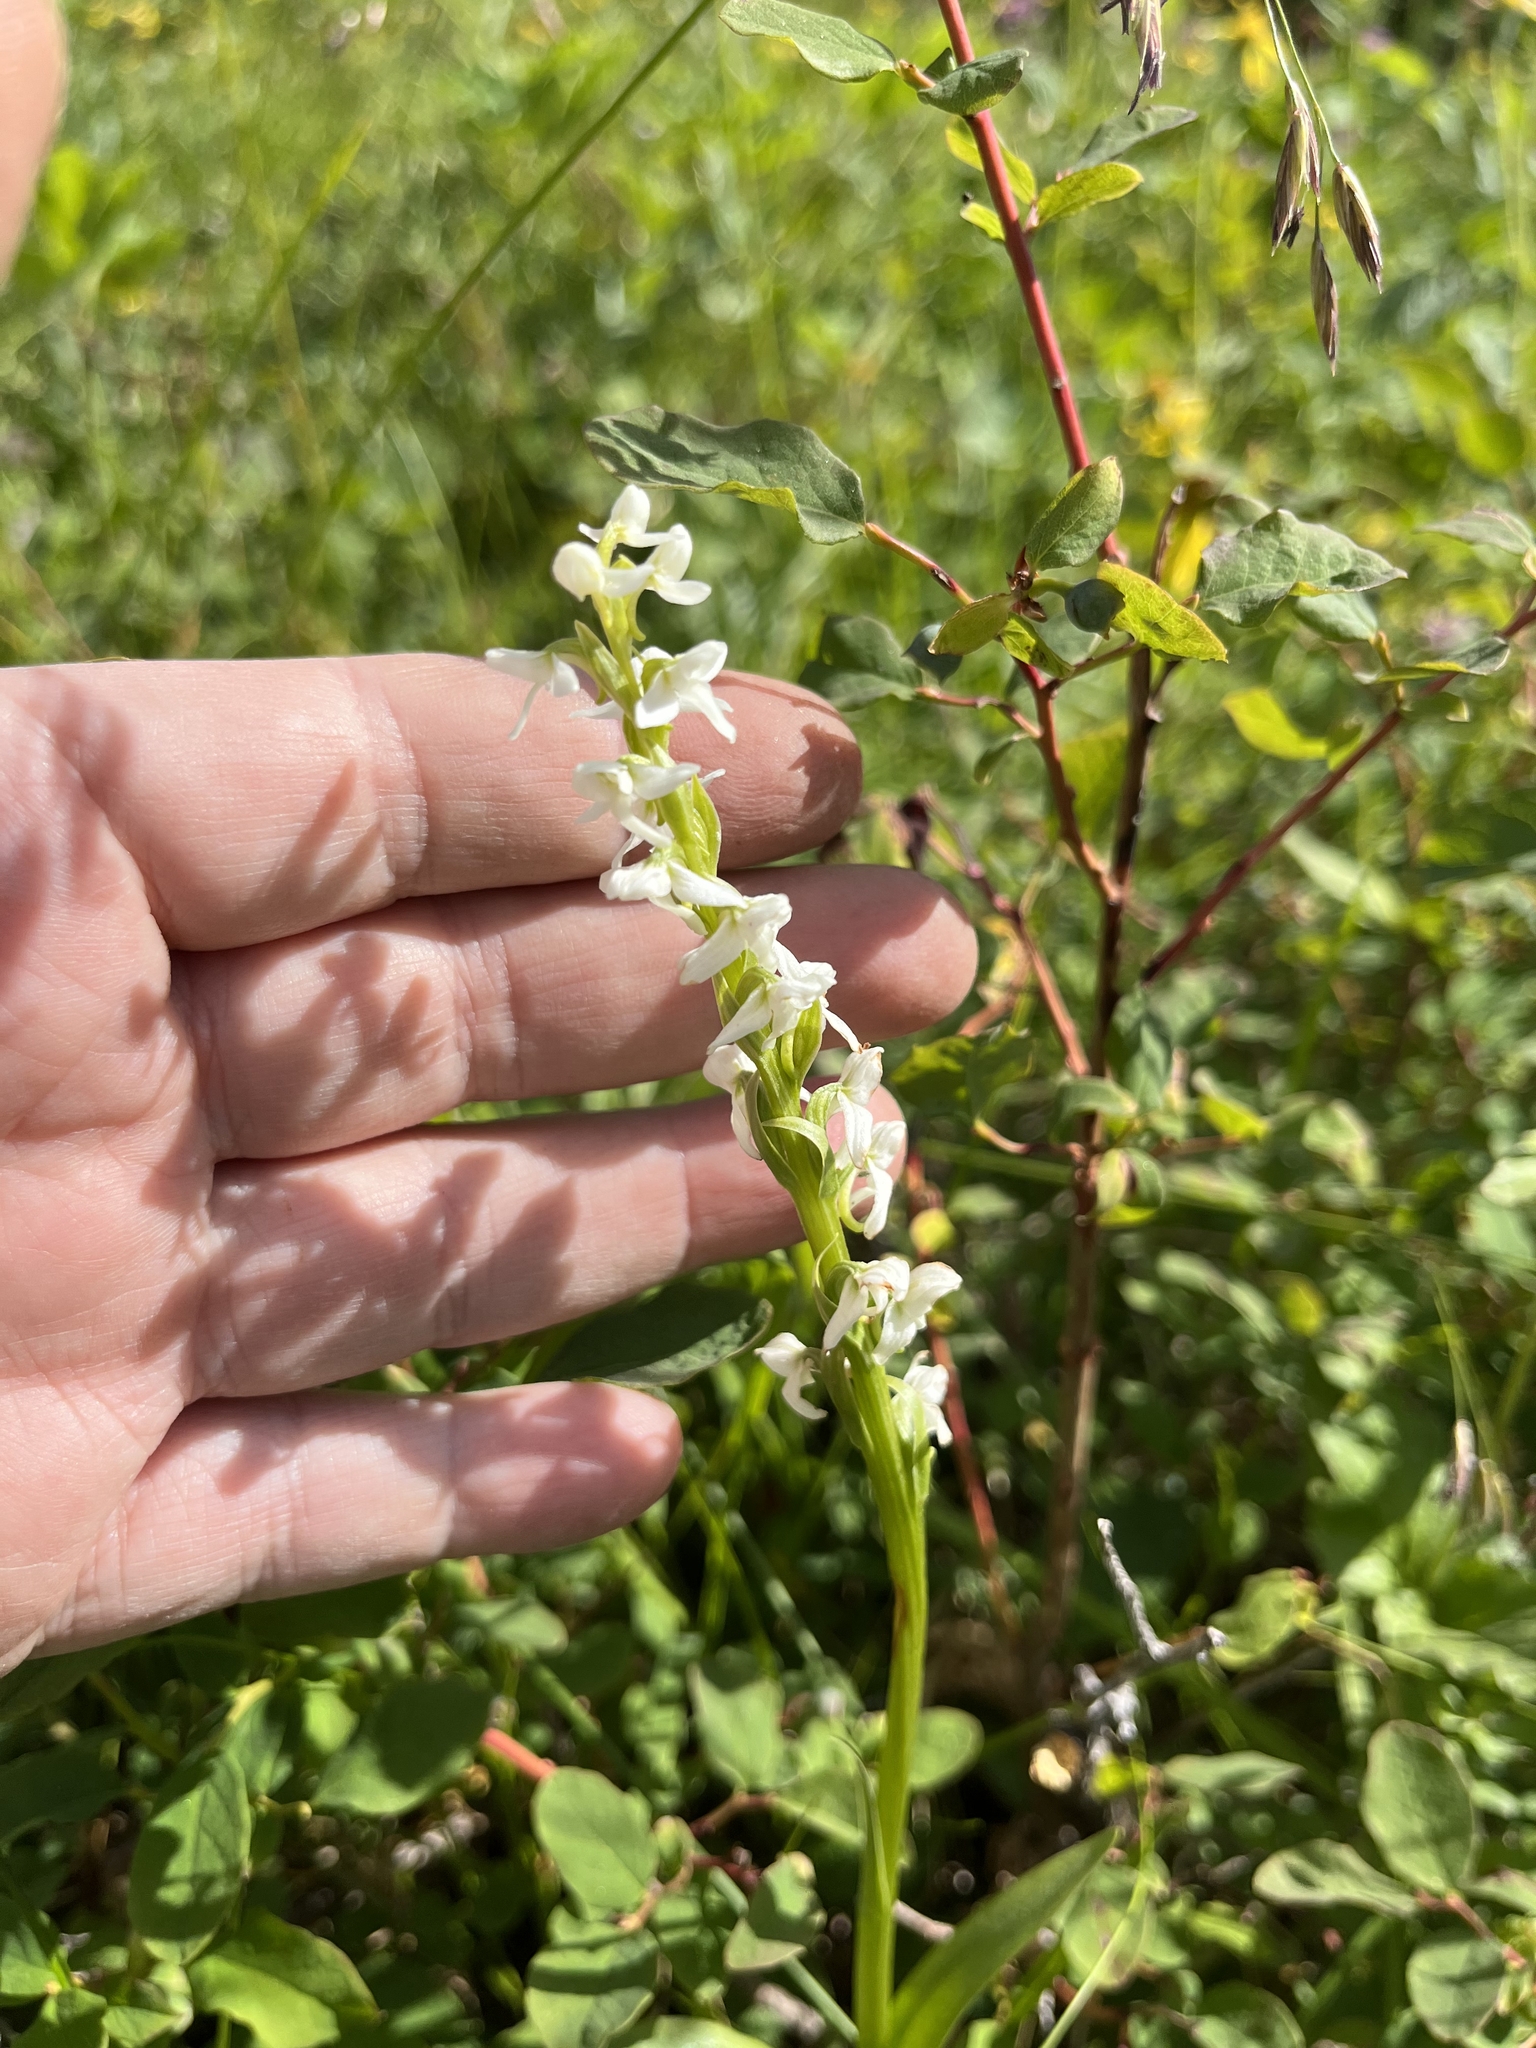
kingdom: Plantae
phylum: Tracheophyta
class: Liliopsida
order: Asparagales
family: Orchidaceae
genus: Platanthera
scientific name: Platanthera dilatata
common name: Bog candles
